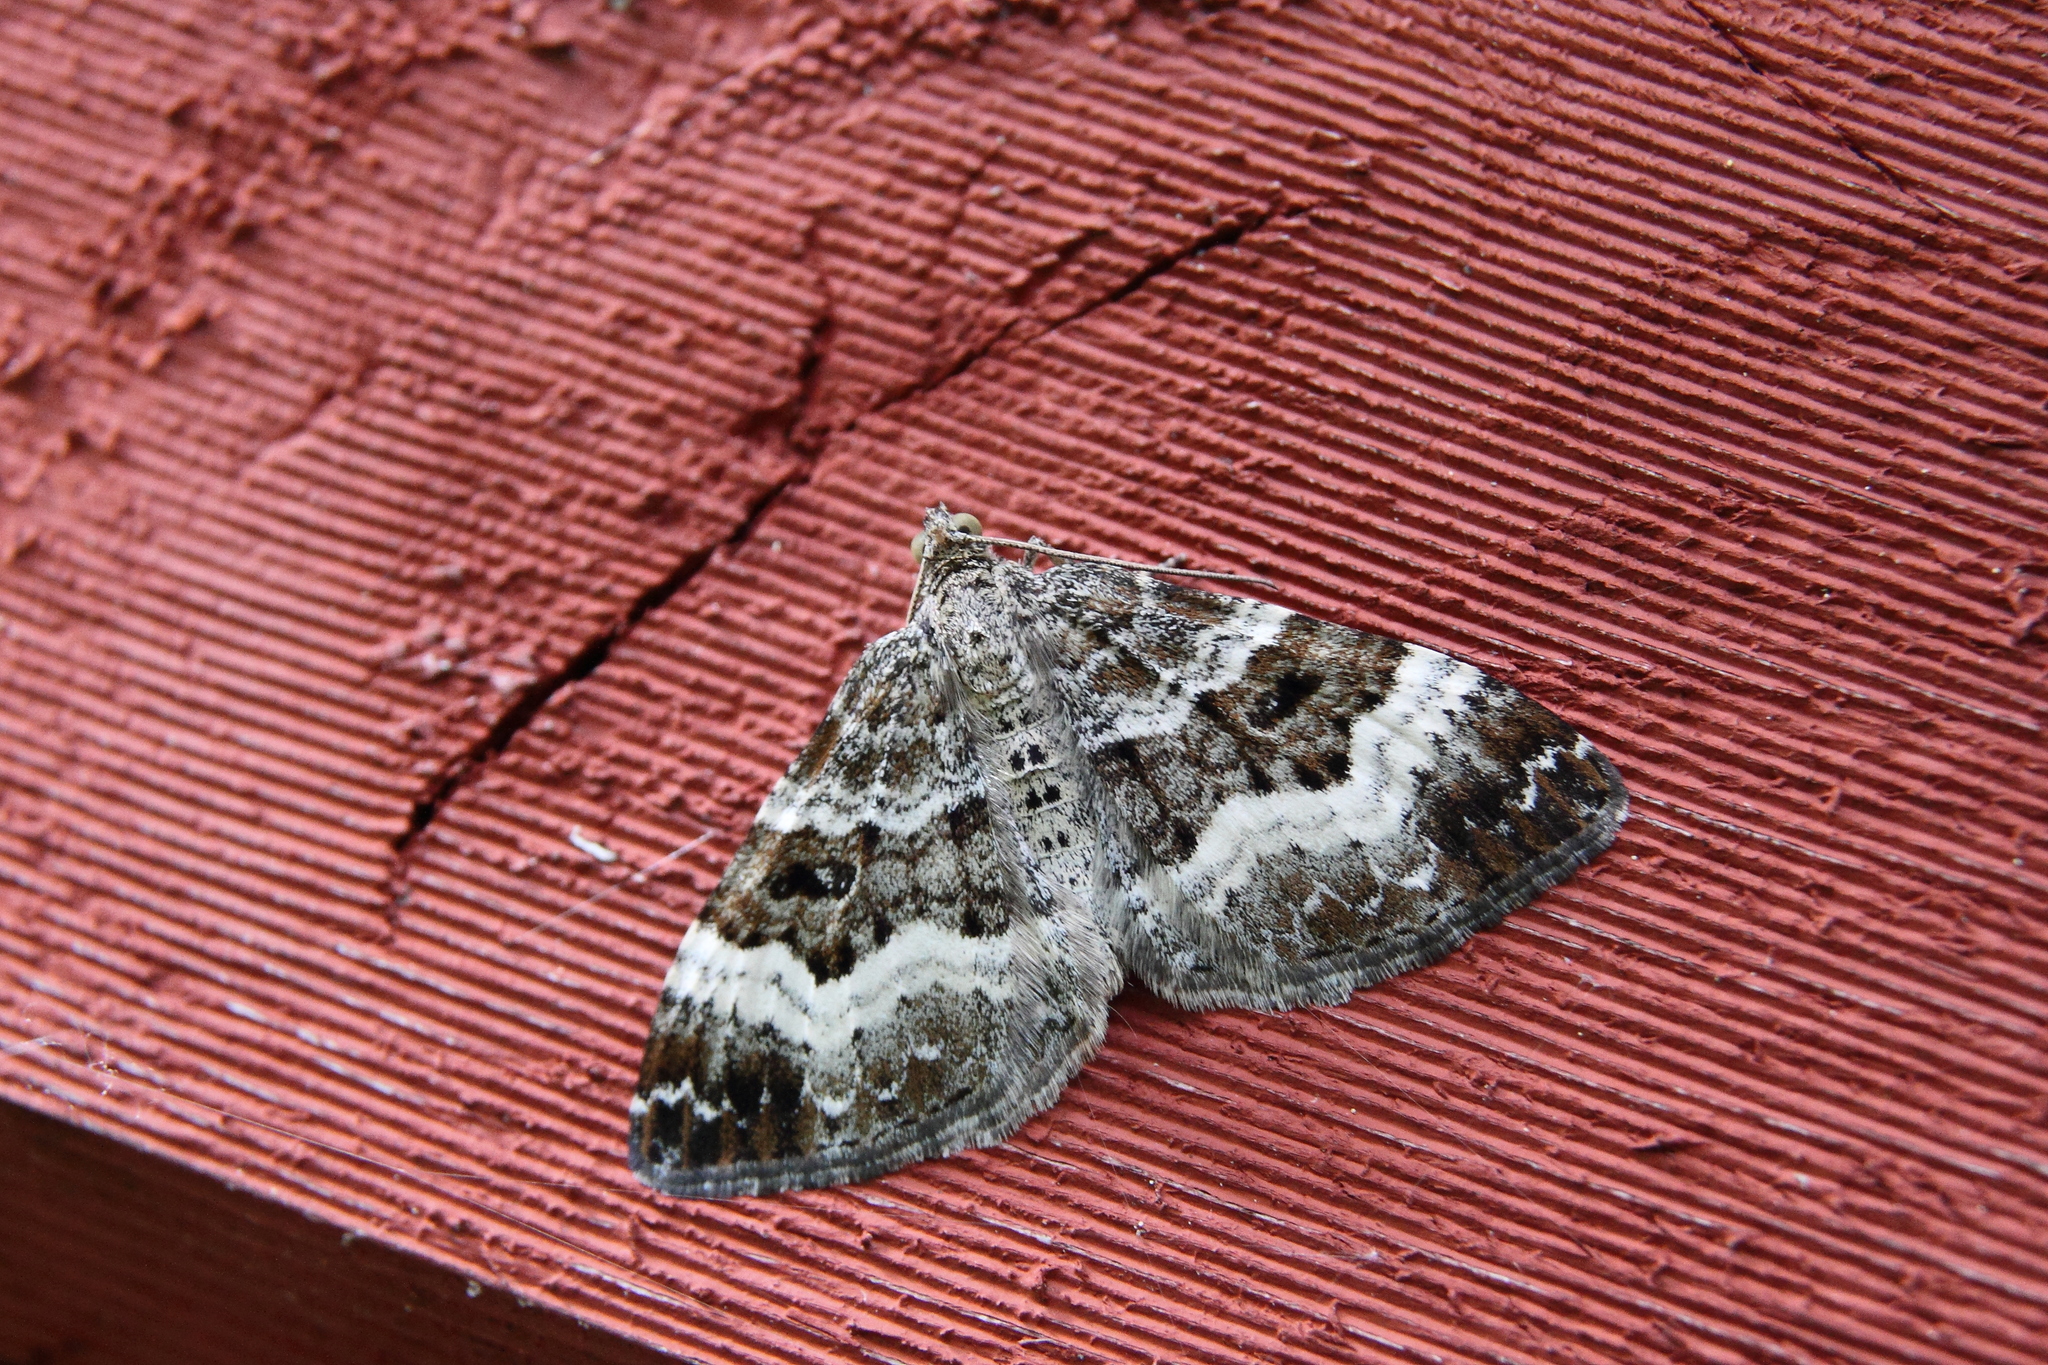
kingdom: Animalia
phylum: Arthropoda
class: Insecta
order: Lepidoptera
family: Geometridae
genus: Epirrhoe
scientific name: Epirrhoe alternata
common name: Common carpet
